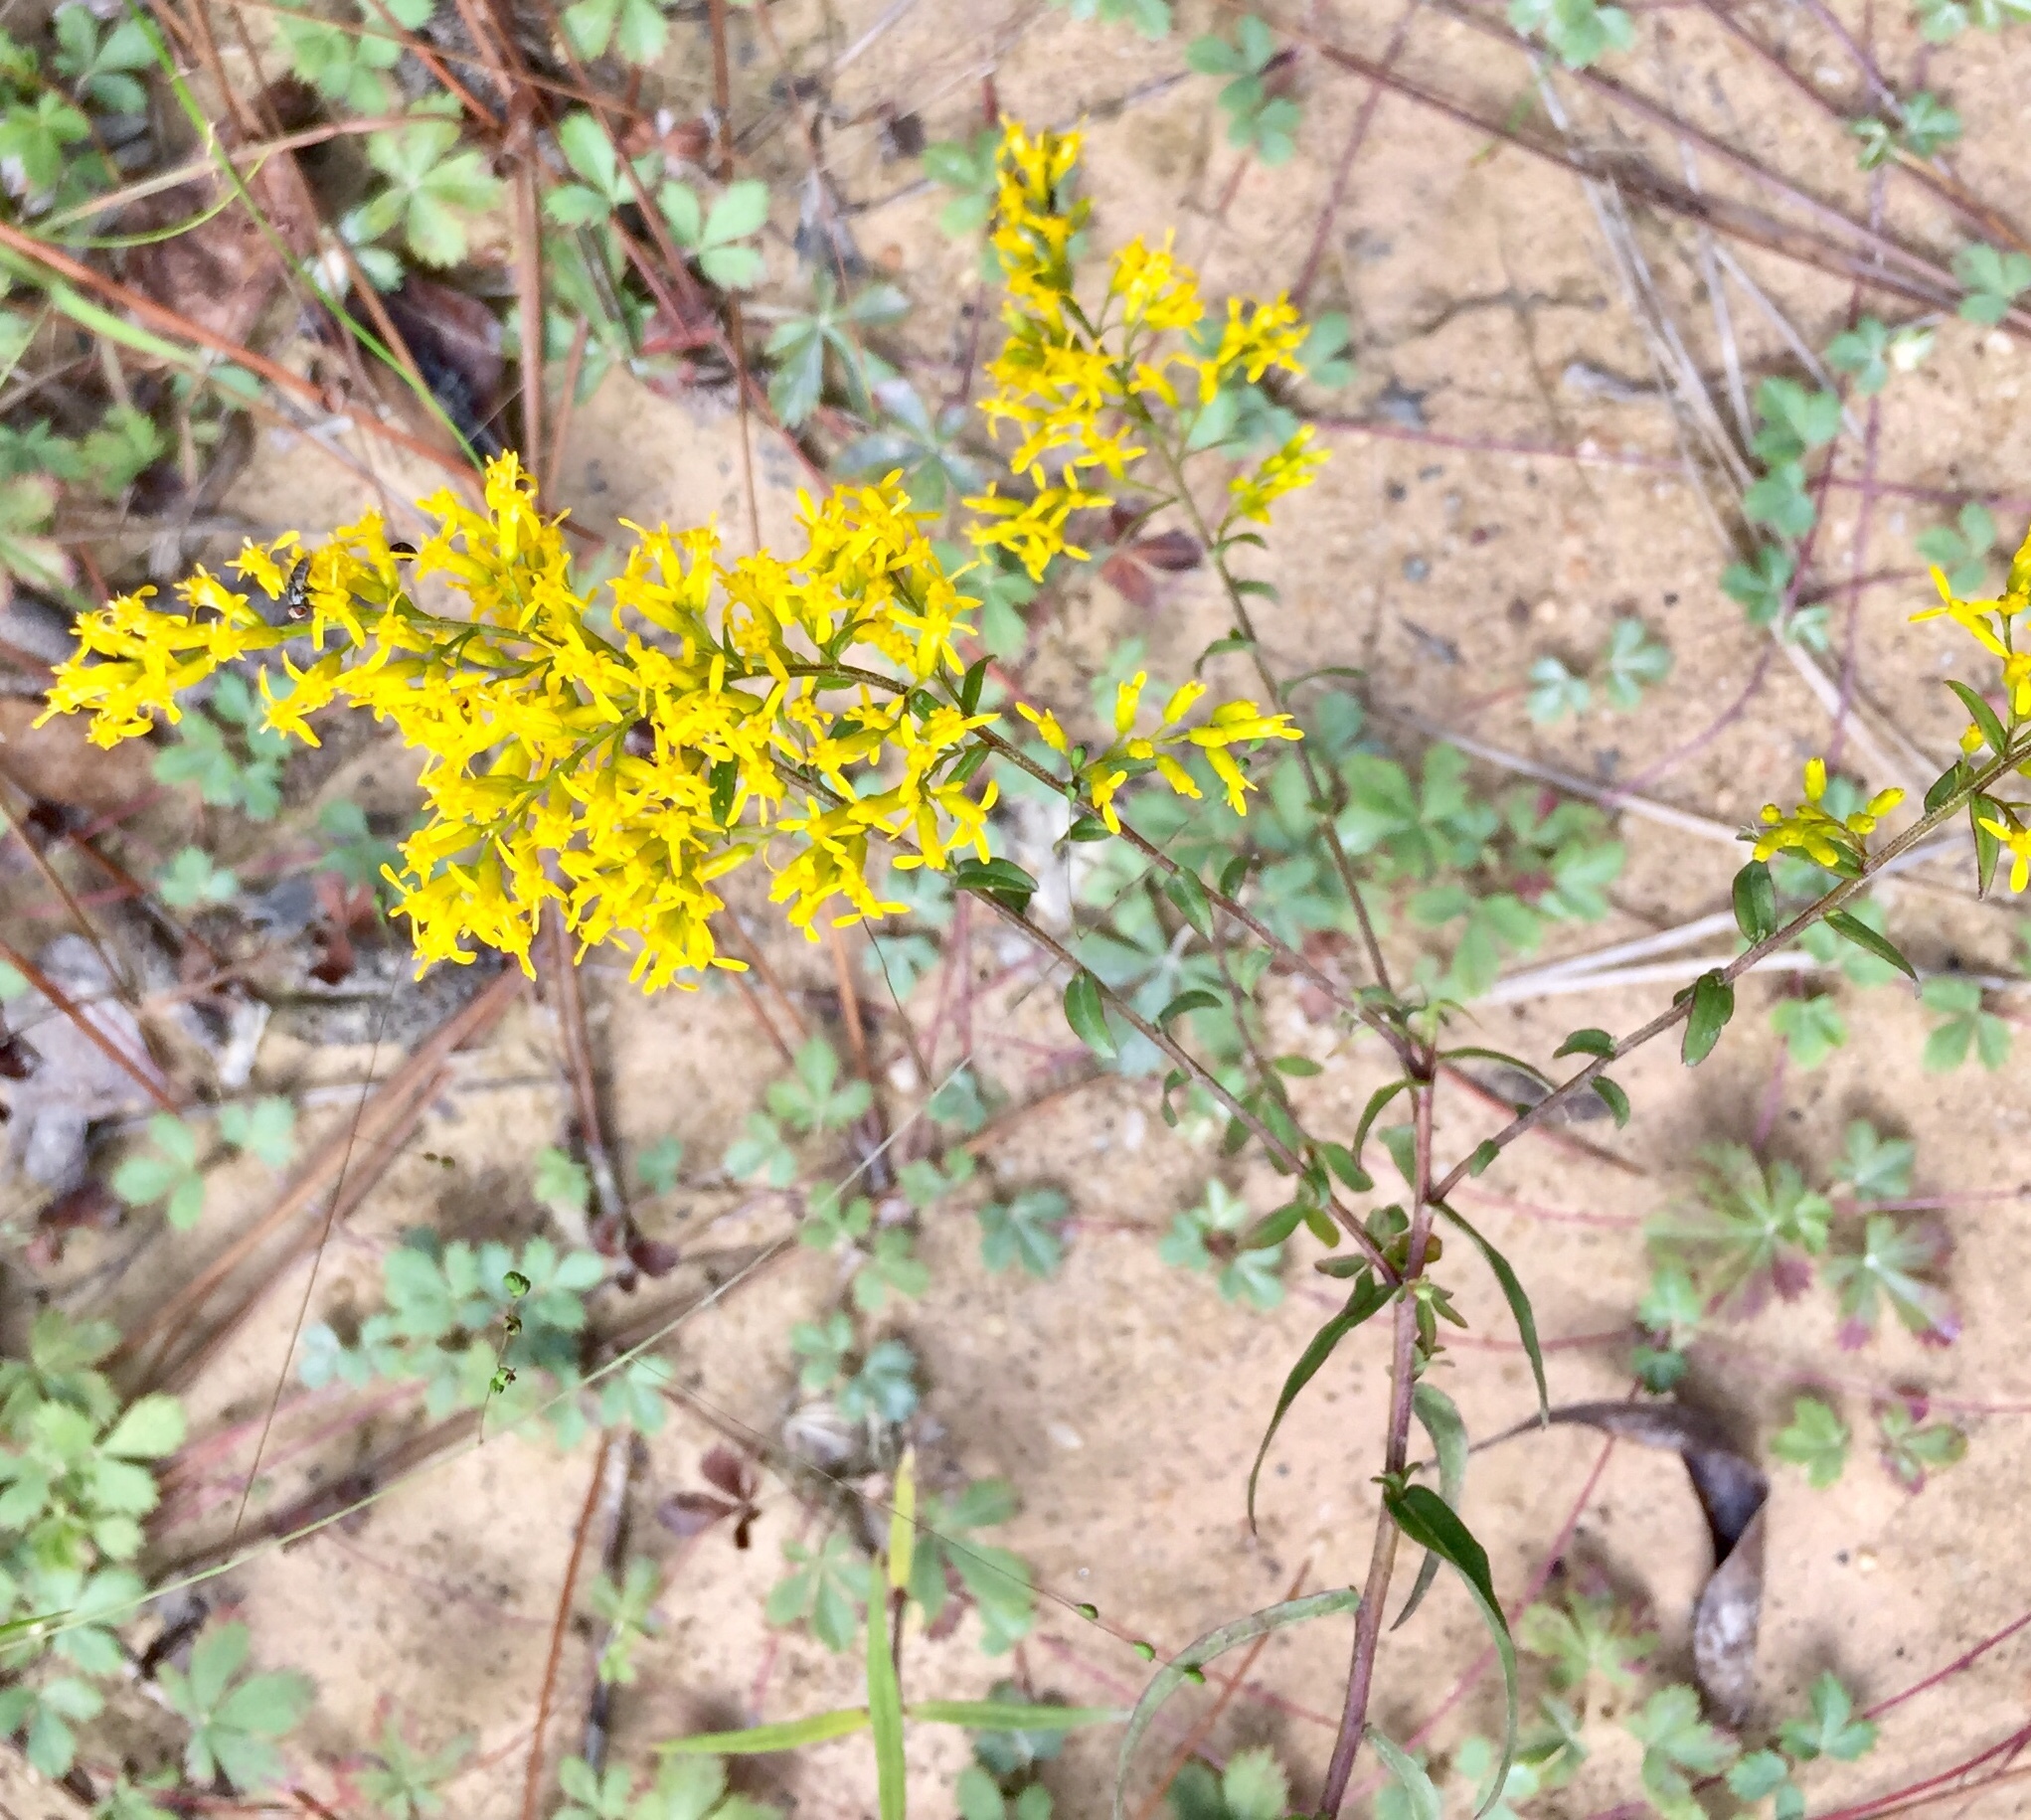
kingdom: Plantae
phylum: Tracheophyta
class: Magnoliopsida
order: Asterales
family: Asteraceae
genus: Solidago
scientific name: Solidago odora
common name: Anise-scented goldenrod
